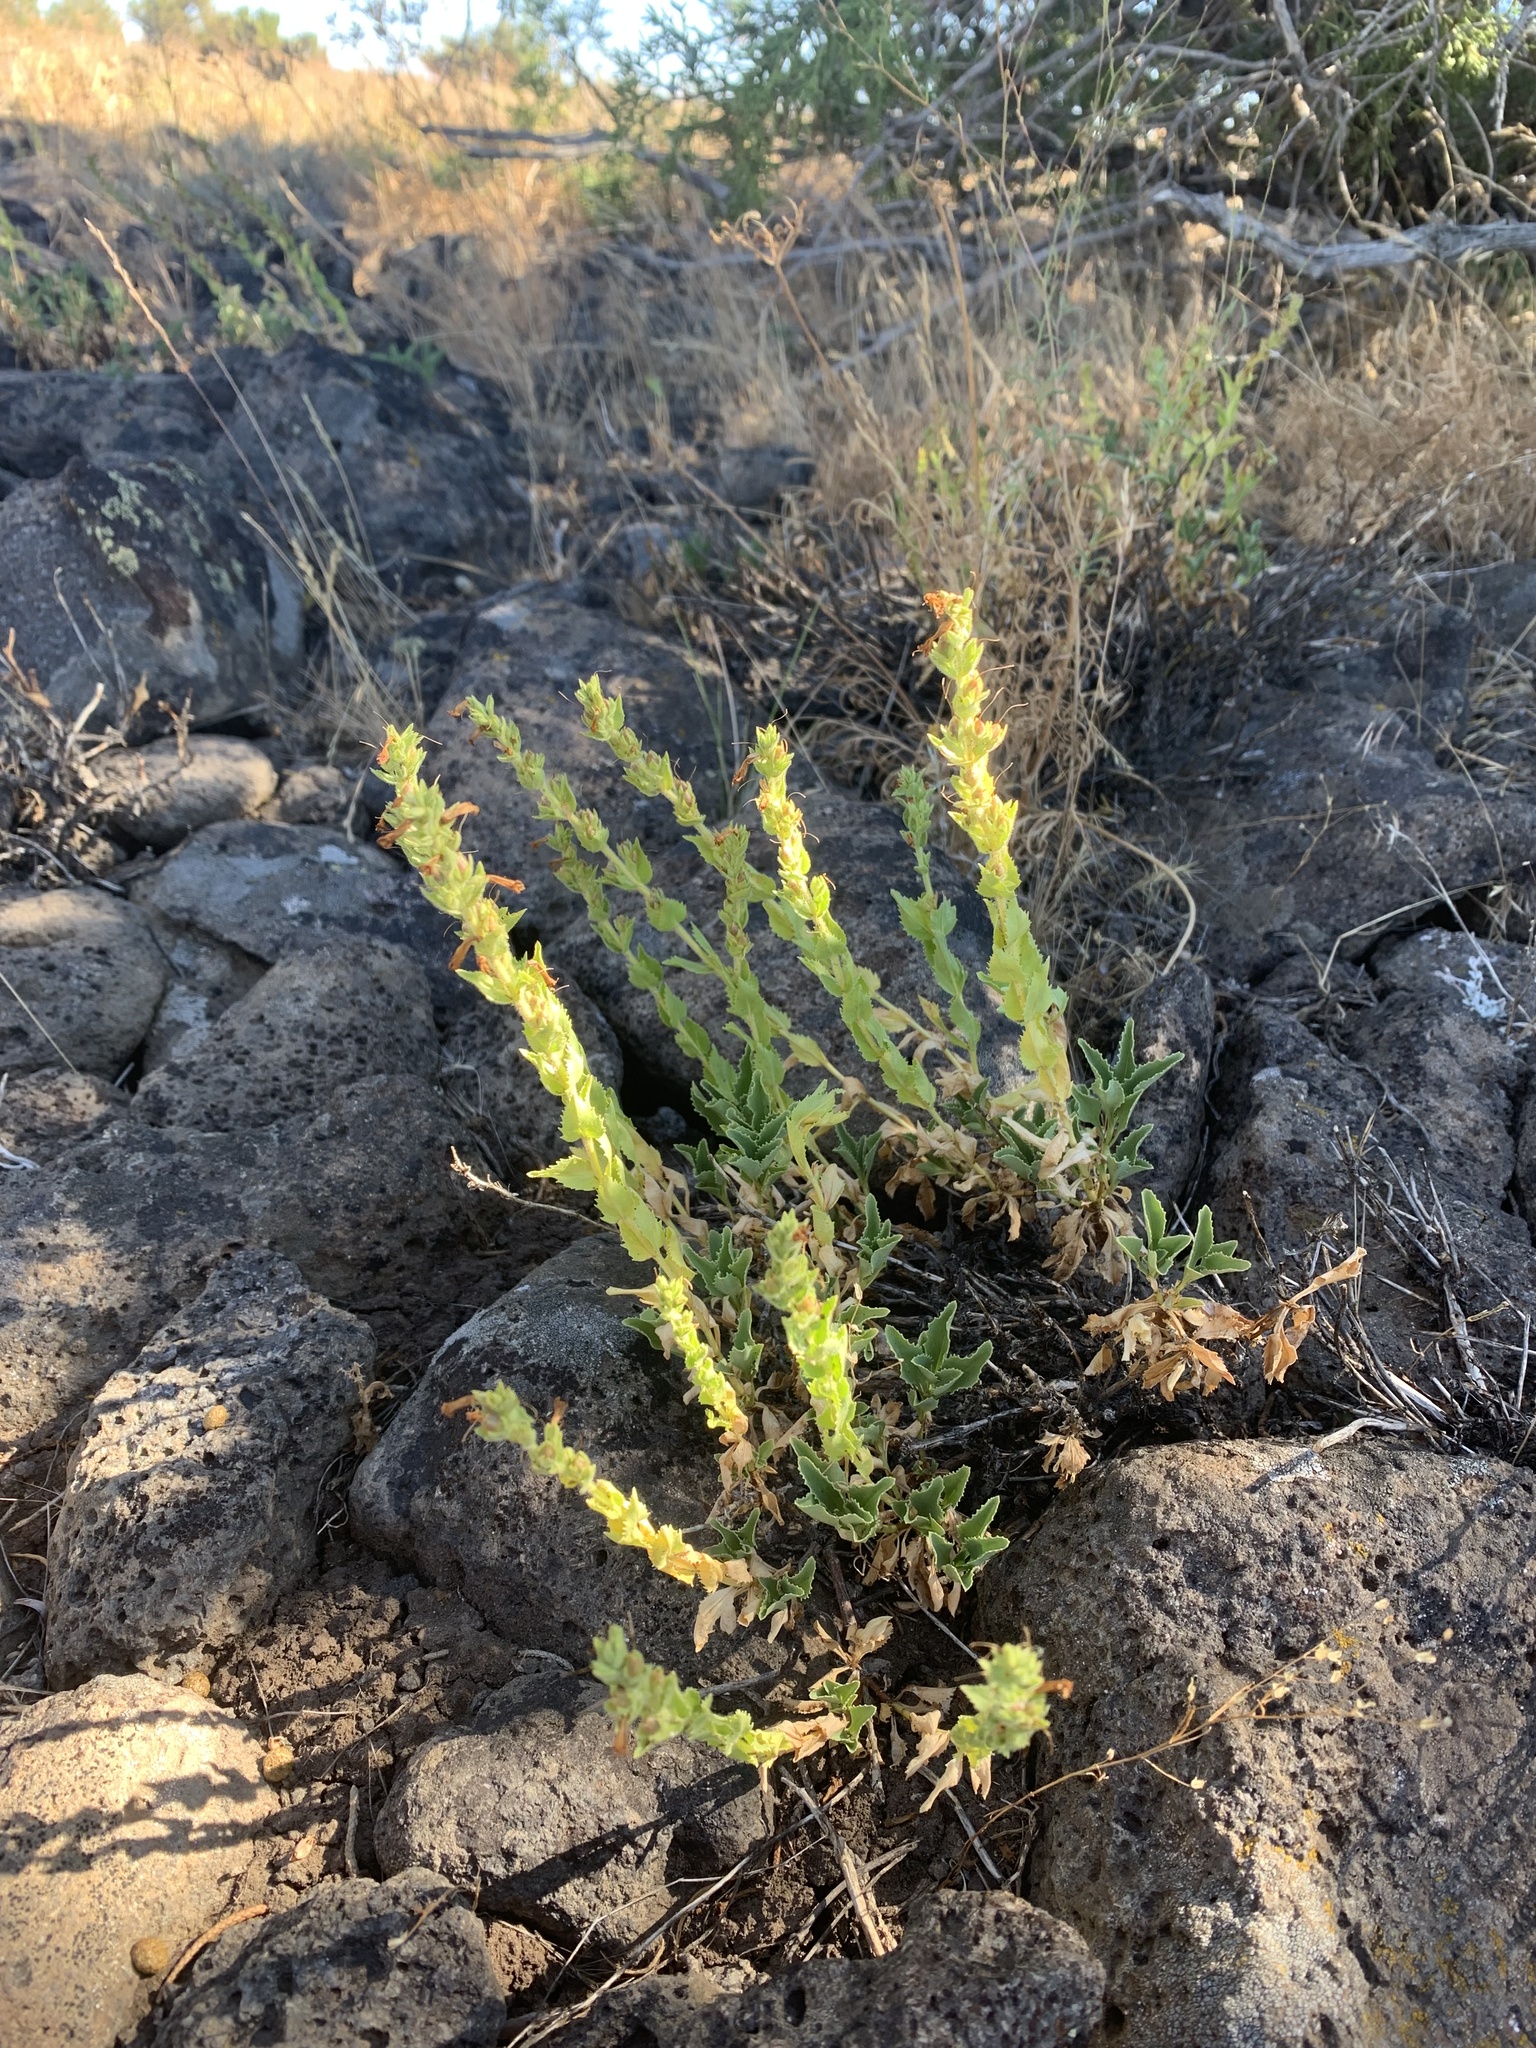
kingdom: Plantae
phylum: Tracheophyta
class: Magnoliopsida
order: Lamiales
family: Plantaginaceae
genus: Penstemon
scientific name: Penstemon sudans
